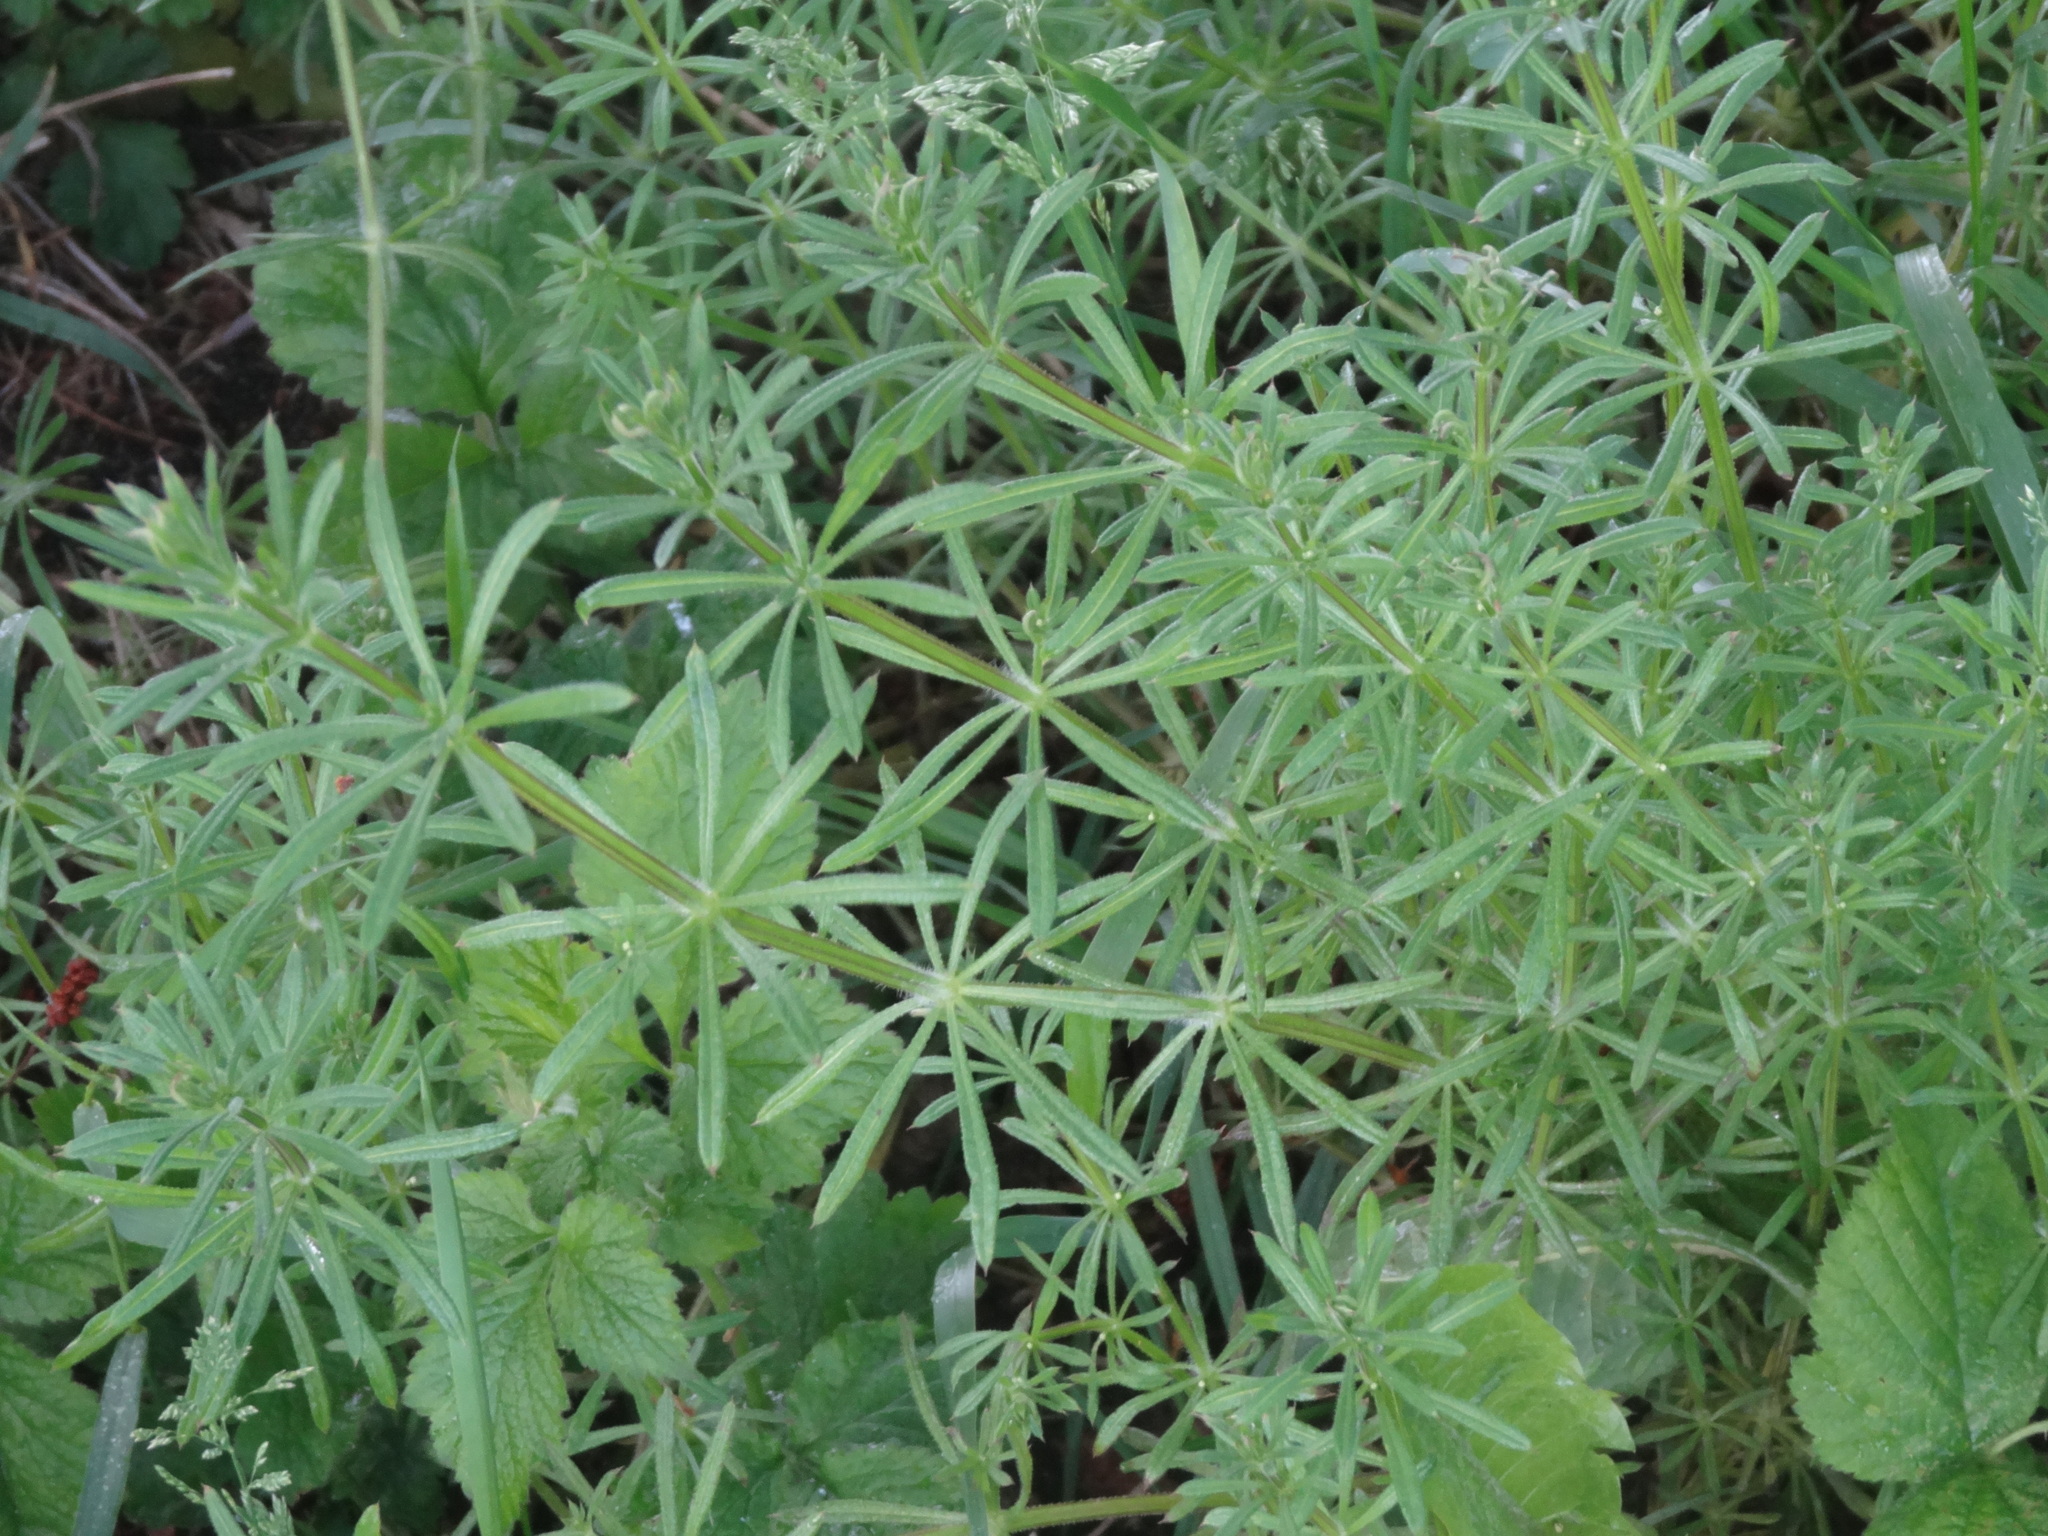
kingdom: Plantae
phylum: Tracheophyta
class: Magnoliopsida
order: Gentianales
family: Rubiaceae
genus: Galium
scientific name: Galium aparine
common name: Cleavers
